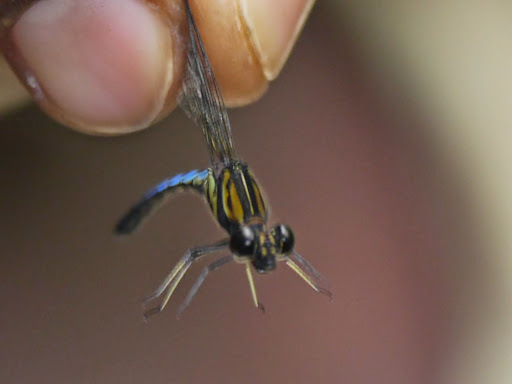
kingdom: Animalia
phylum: Arthropoda
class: Insecta
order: Odonata
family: Chlorocyphidae
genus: Chlorocypha
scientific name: Chlorocypha aphrodite
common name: Blue jewel
